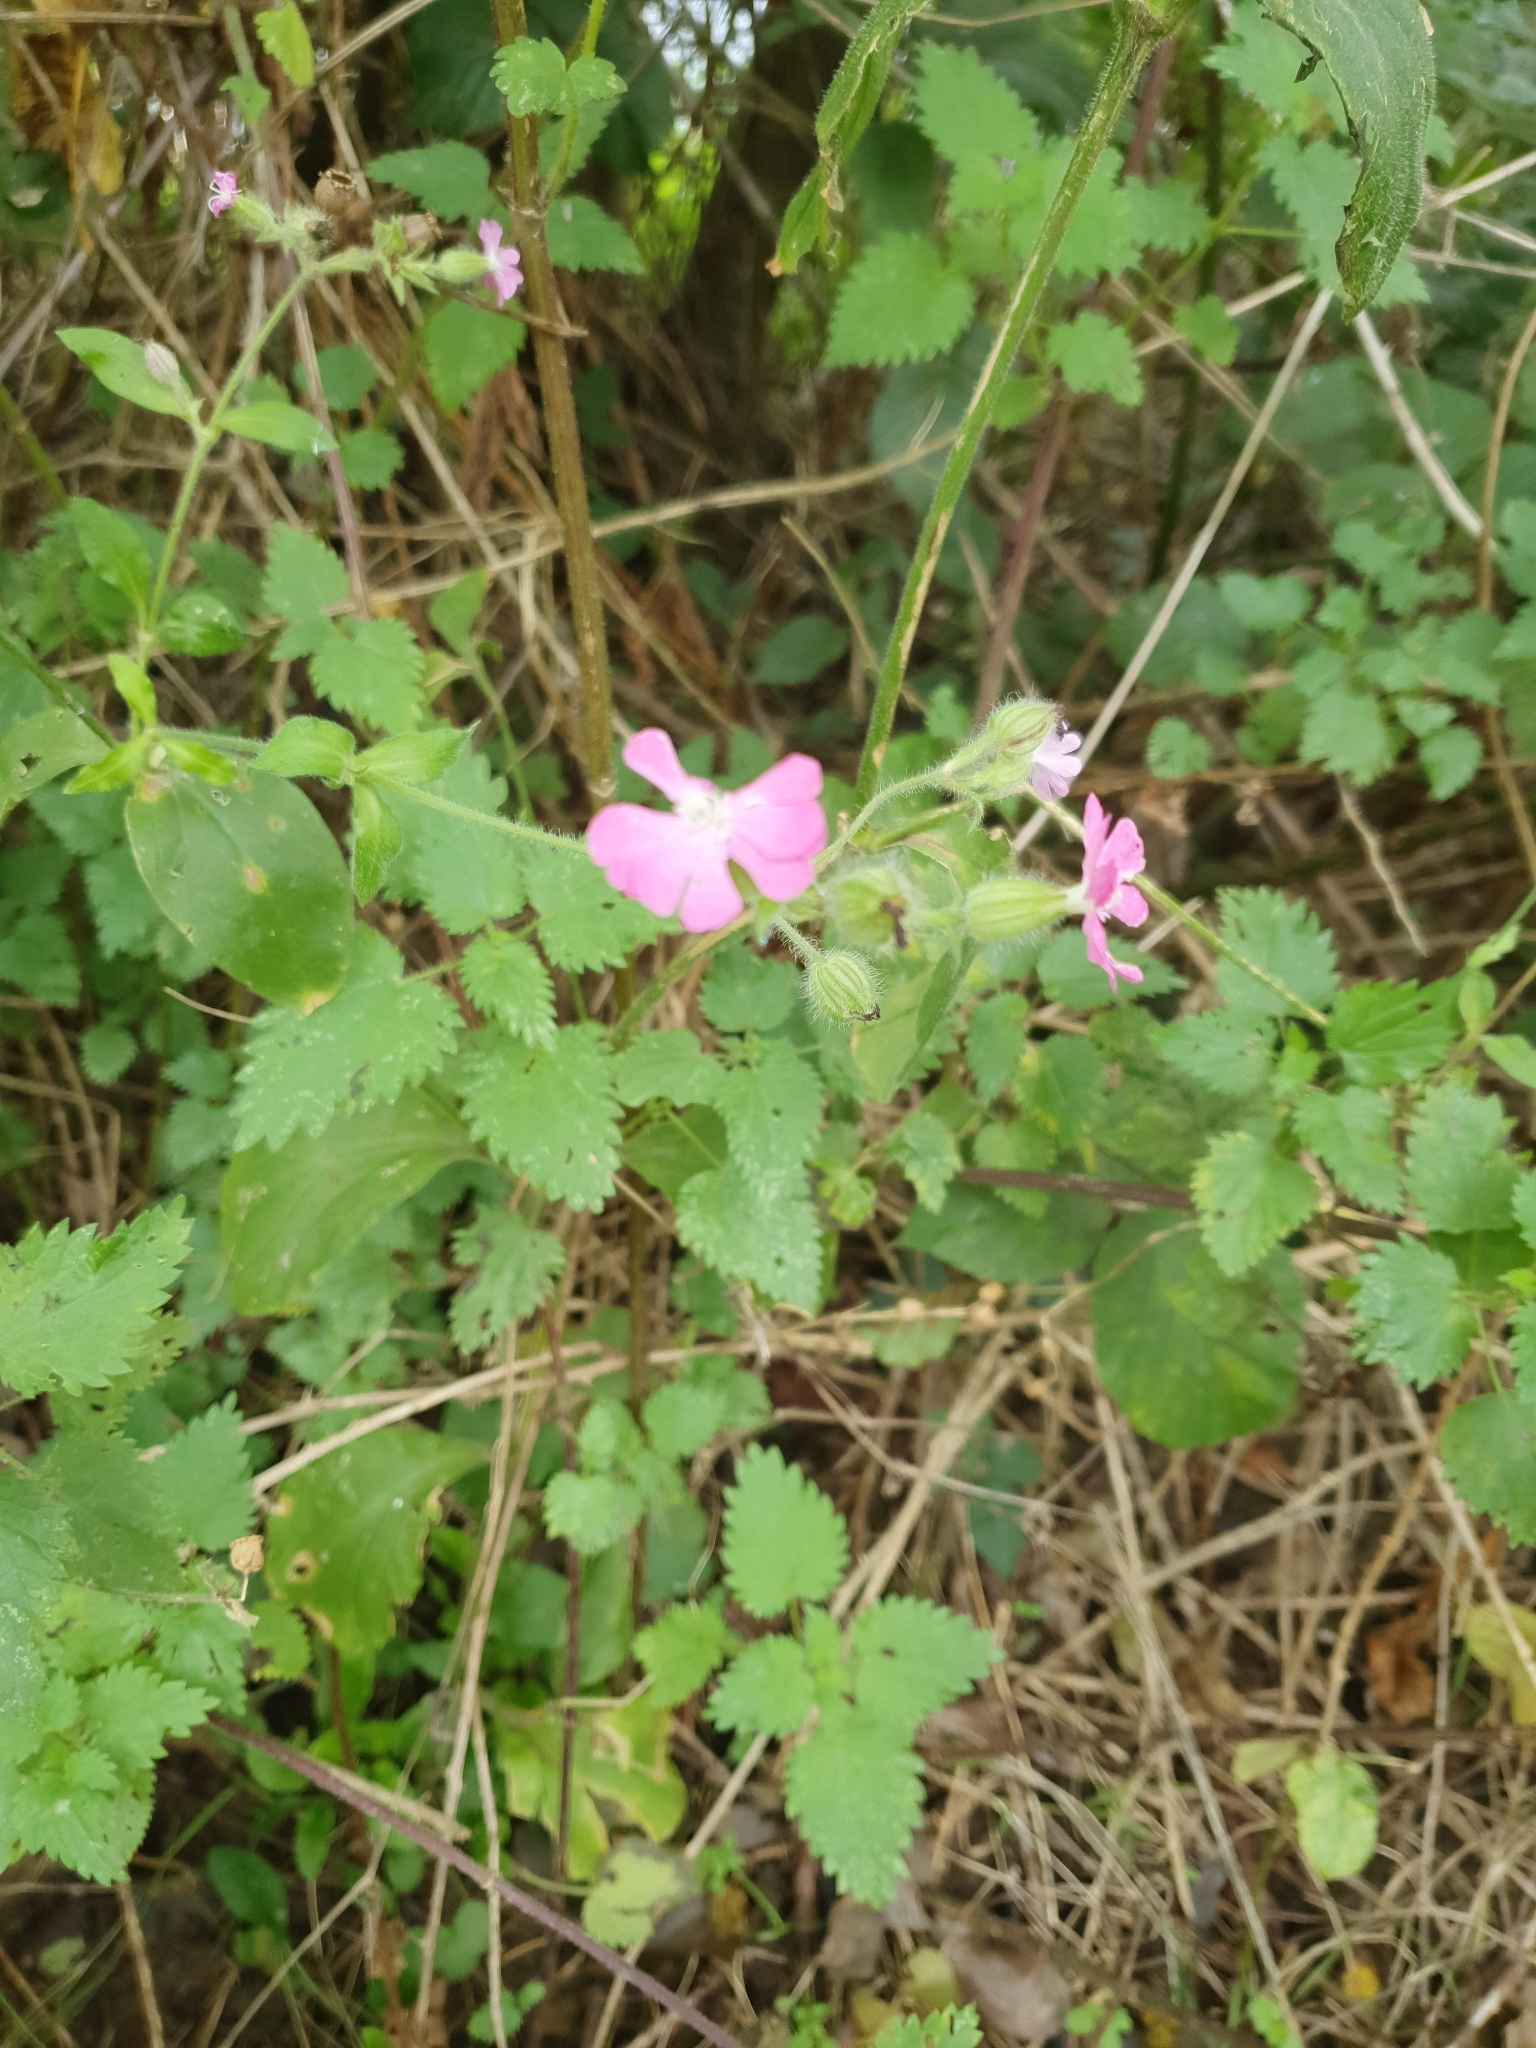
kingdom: Plantae
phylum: Tracheophyta
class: Magnoliopsida
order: Caryophyllales
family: Caryophyllaceae
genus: Silene
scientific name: Silene dioica
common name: Red campion
